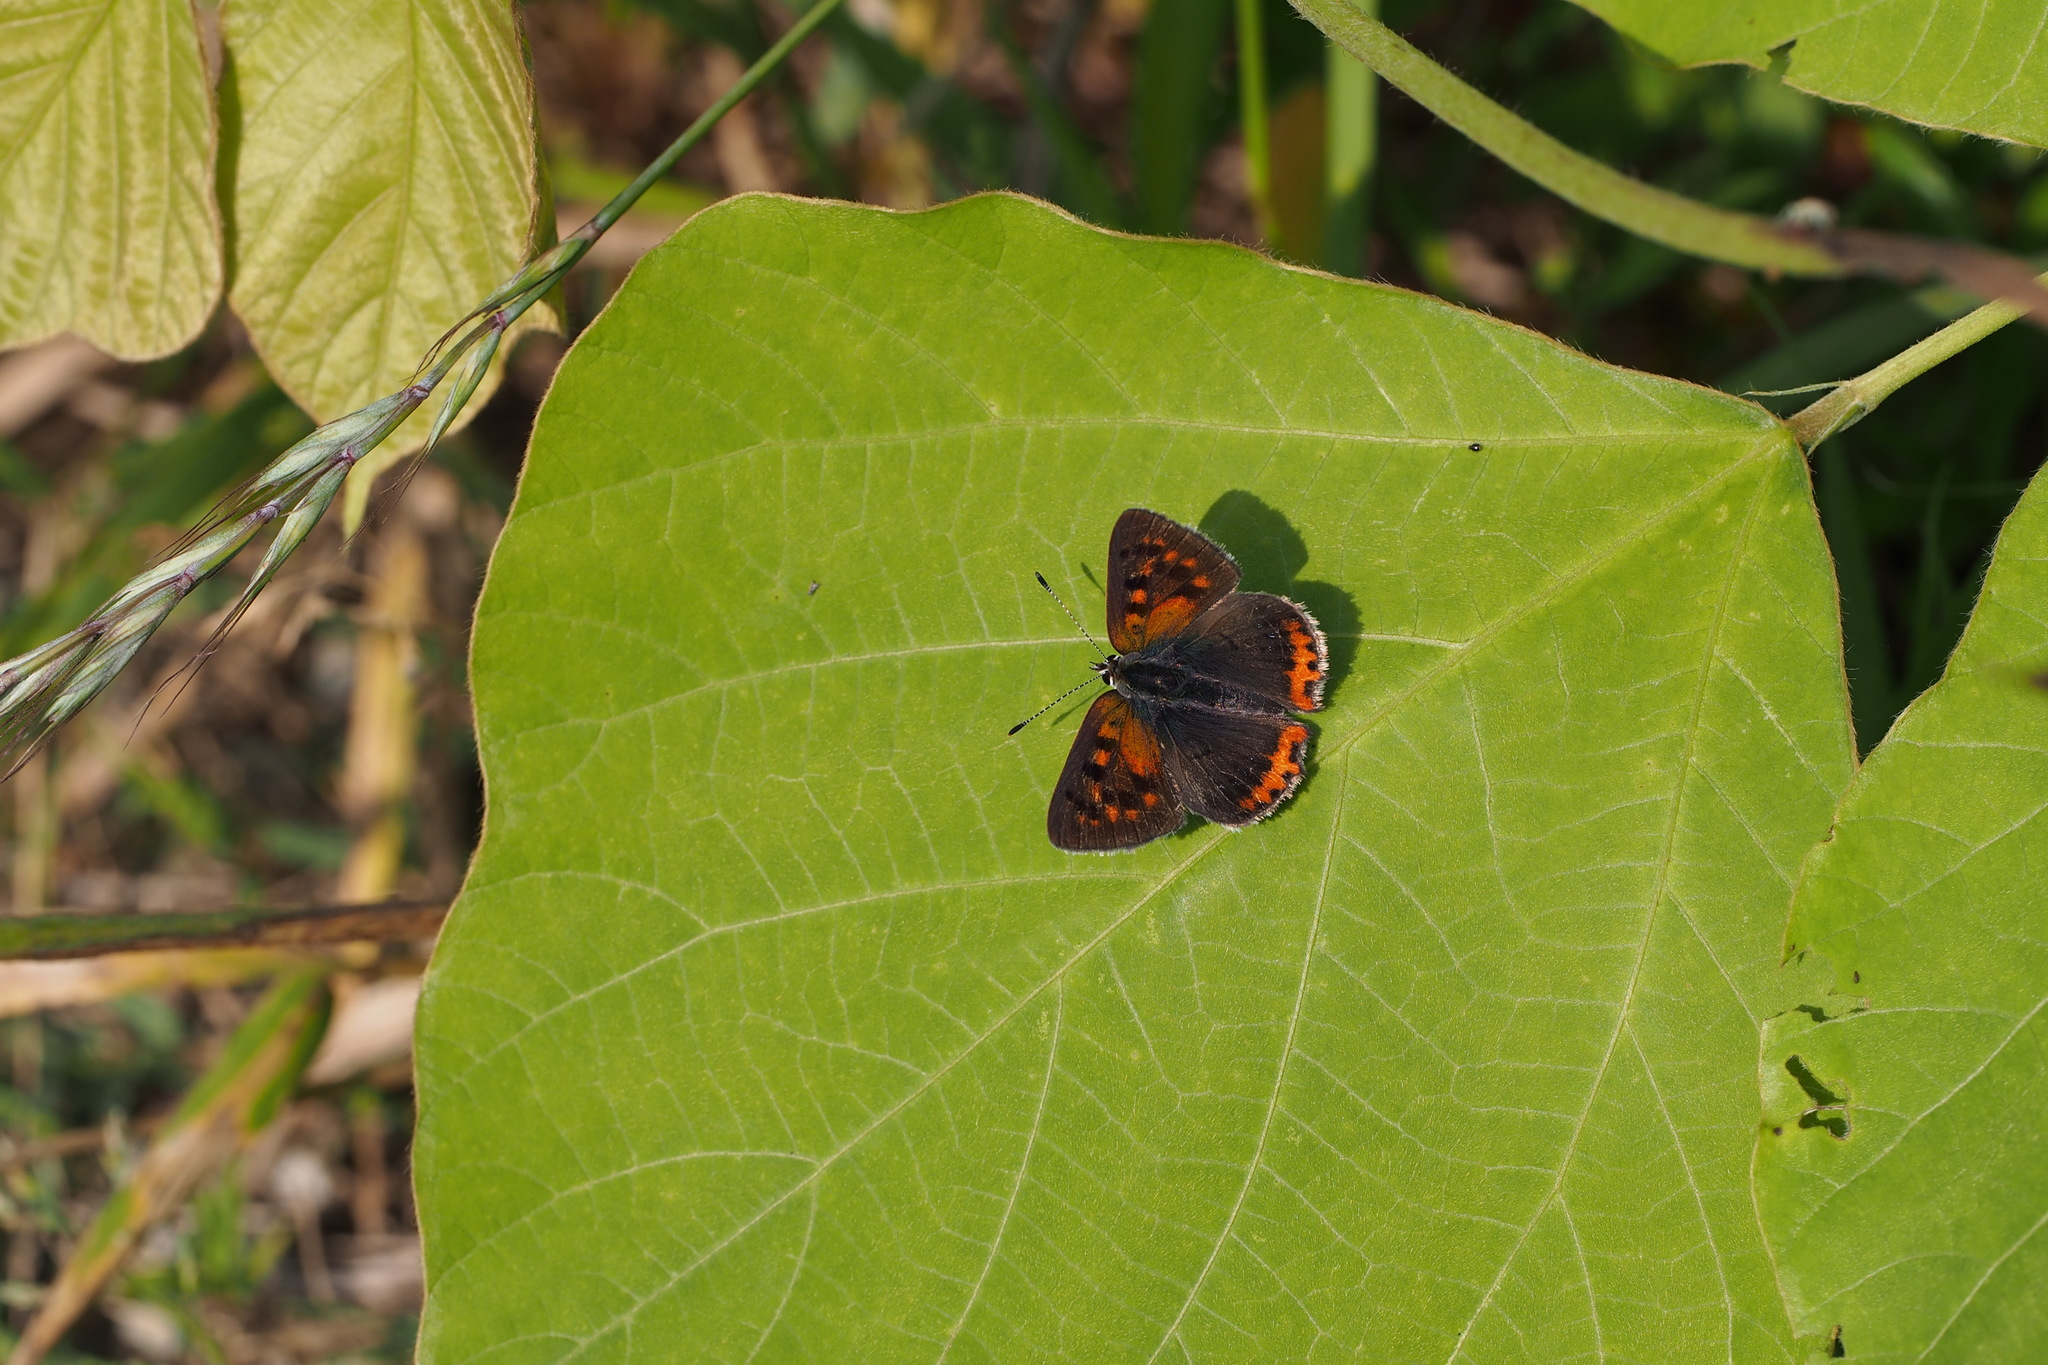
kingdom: Animalia
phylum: Arthropoda
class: Insecta
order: Lepidoptera
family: Lycaenidae
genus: Lycaena
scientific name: Lycaena phlaeas
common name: Small copper
